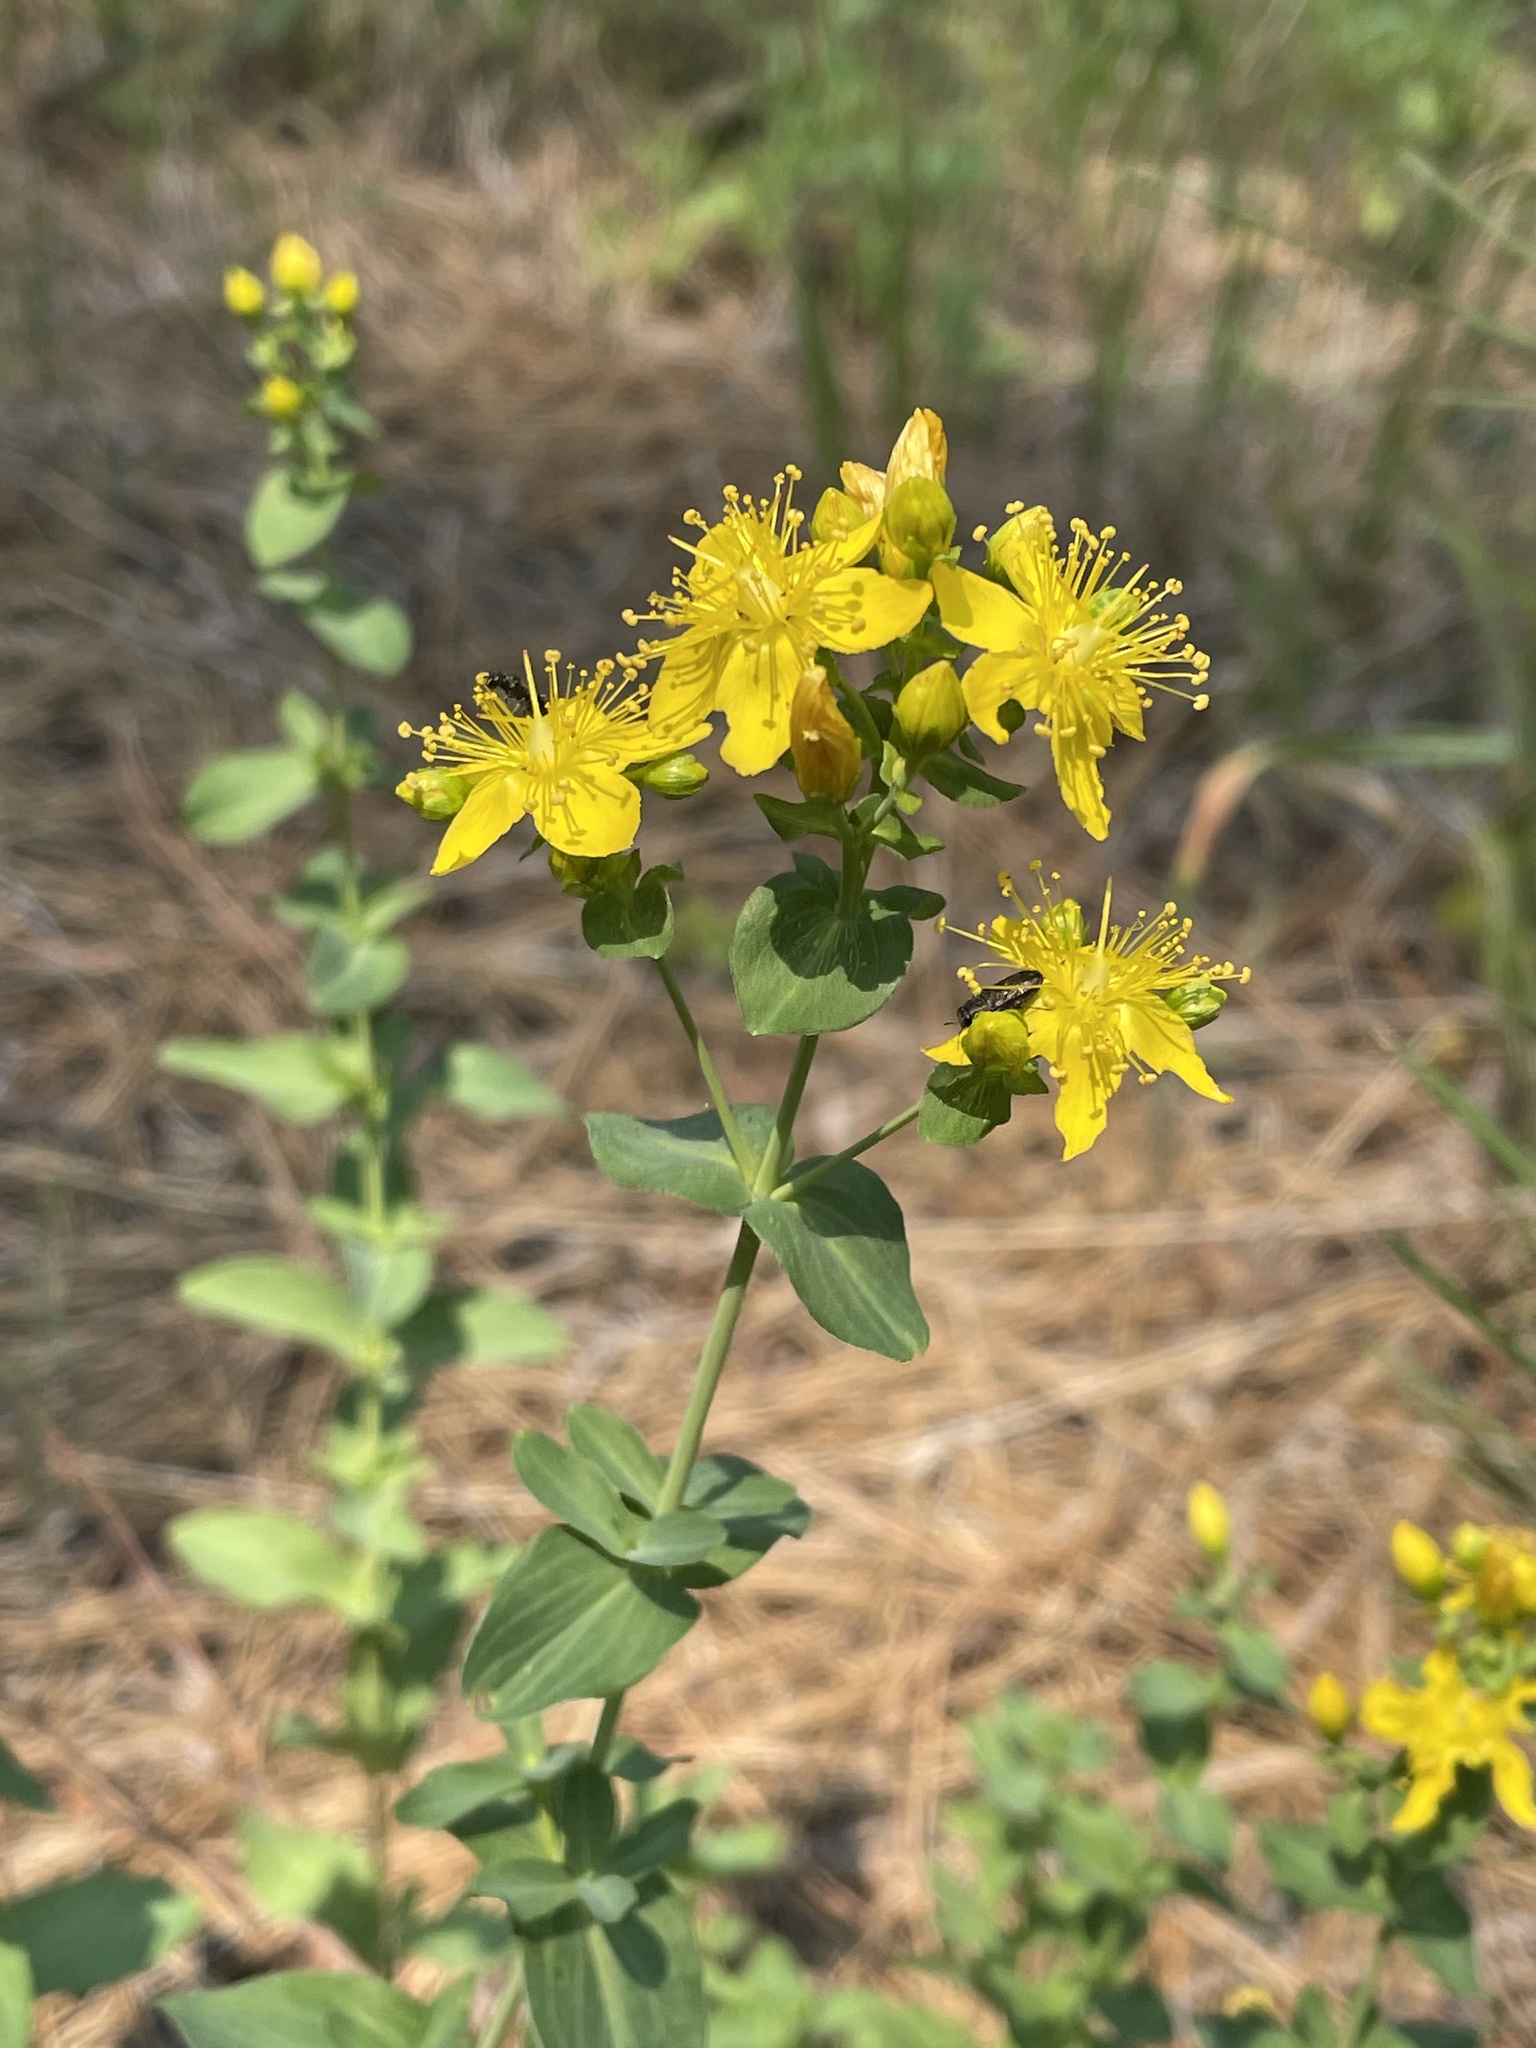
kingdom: Plantae
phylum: Tracheophyta
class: Magnoliopsida
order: Malpighiales
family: Hypericaceae
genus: Hypericum
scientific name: Hypericum scouleri
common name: Scouler's st. john's-wort
